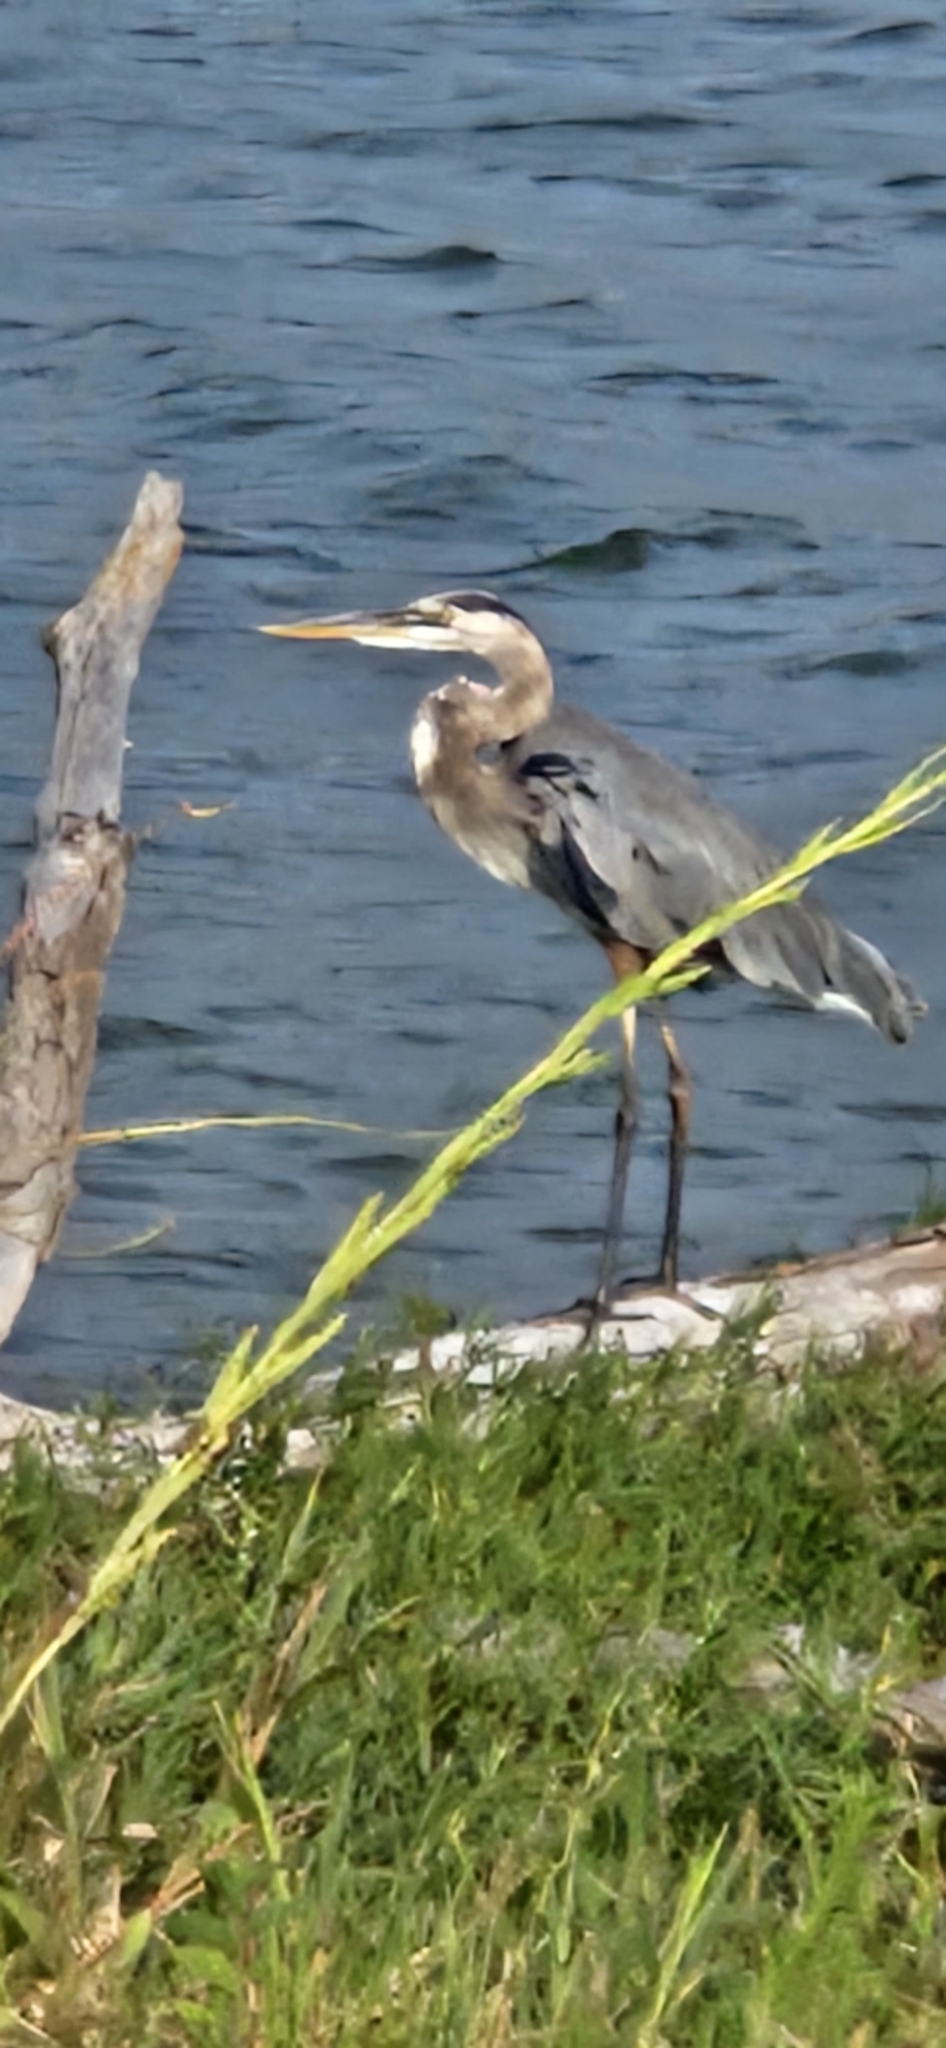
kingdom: Animalia
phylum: Chordata
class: Aves
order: Pelecaniformes
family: Ardeidae
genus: Ardea
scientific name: Ardea herodias
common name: Great blue heron
